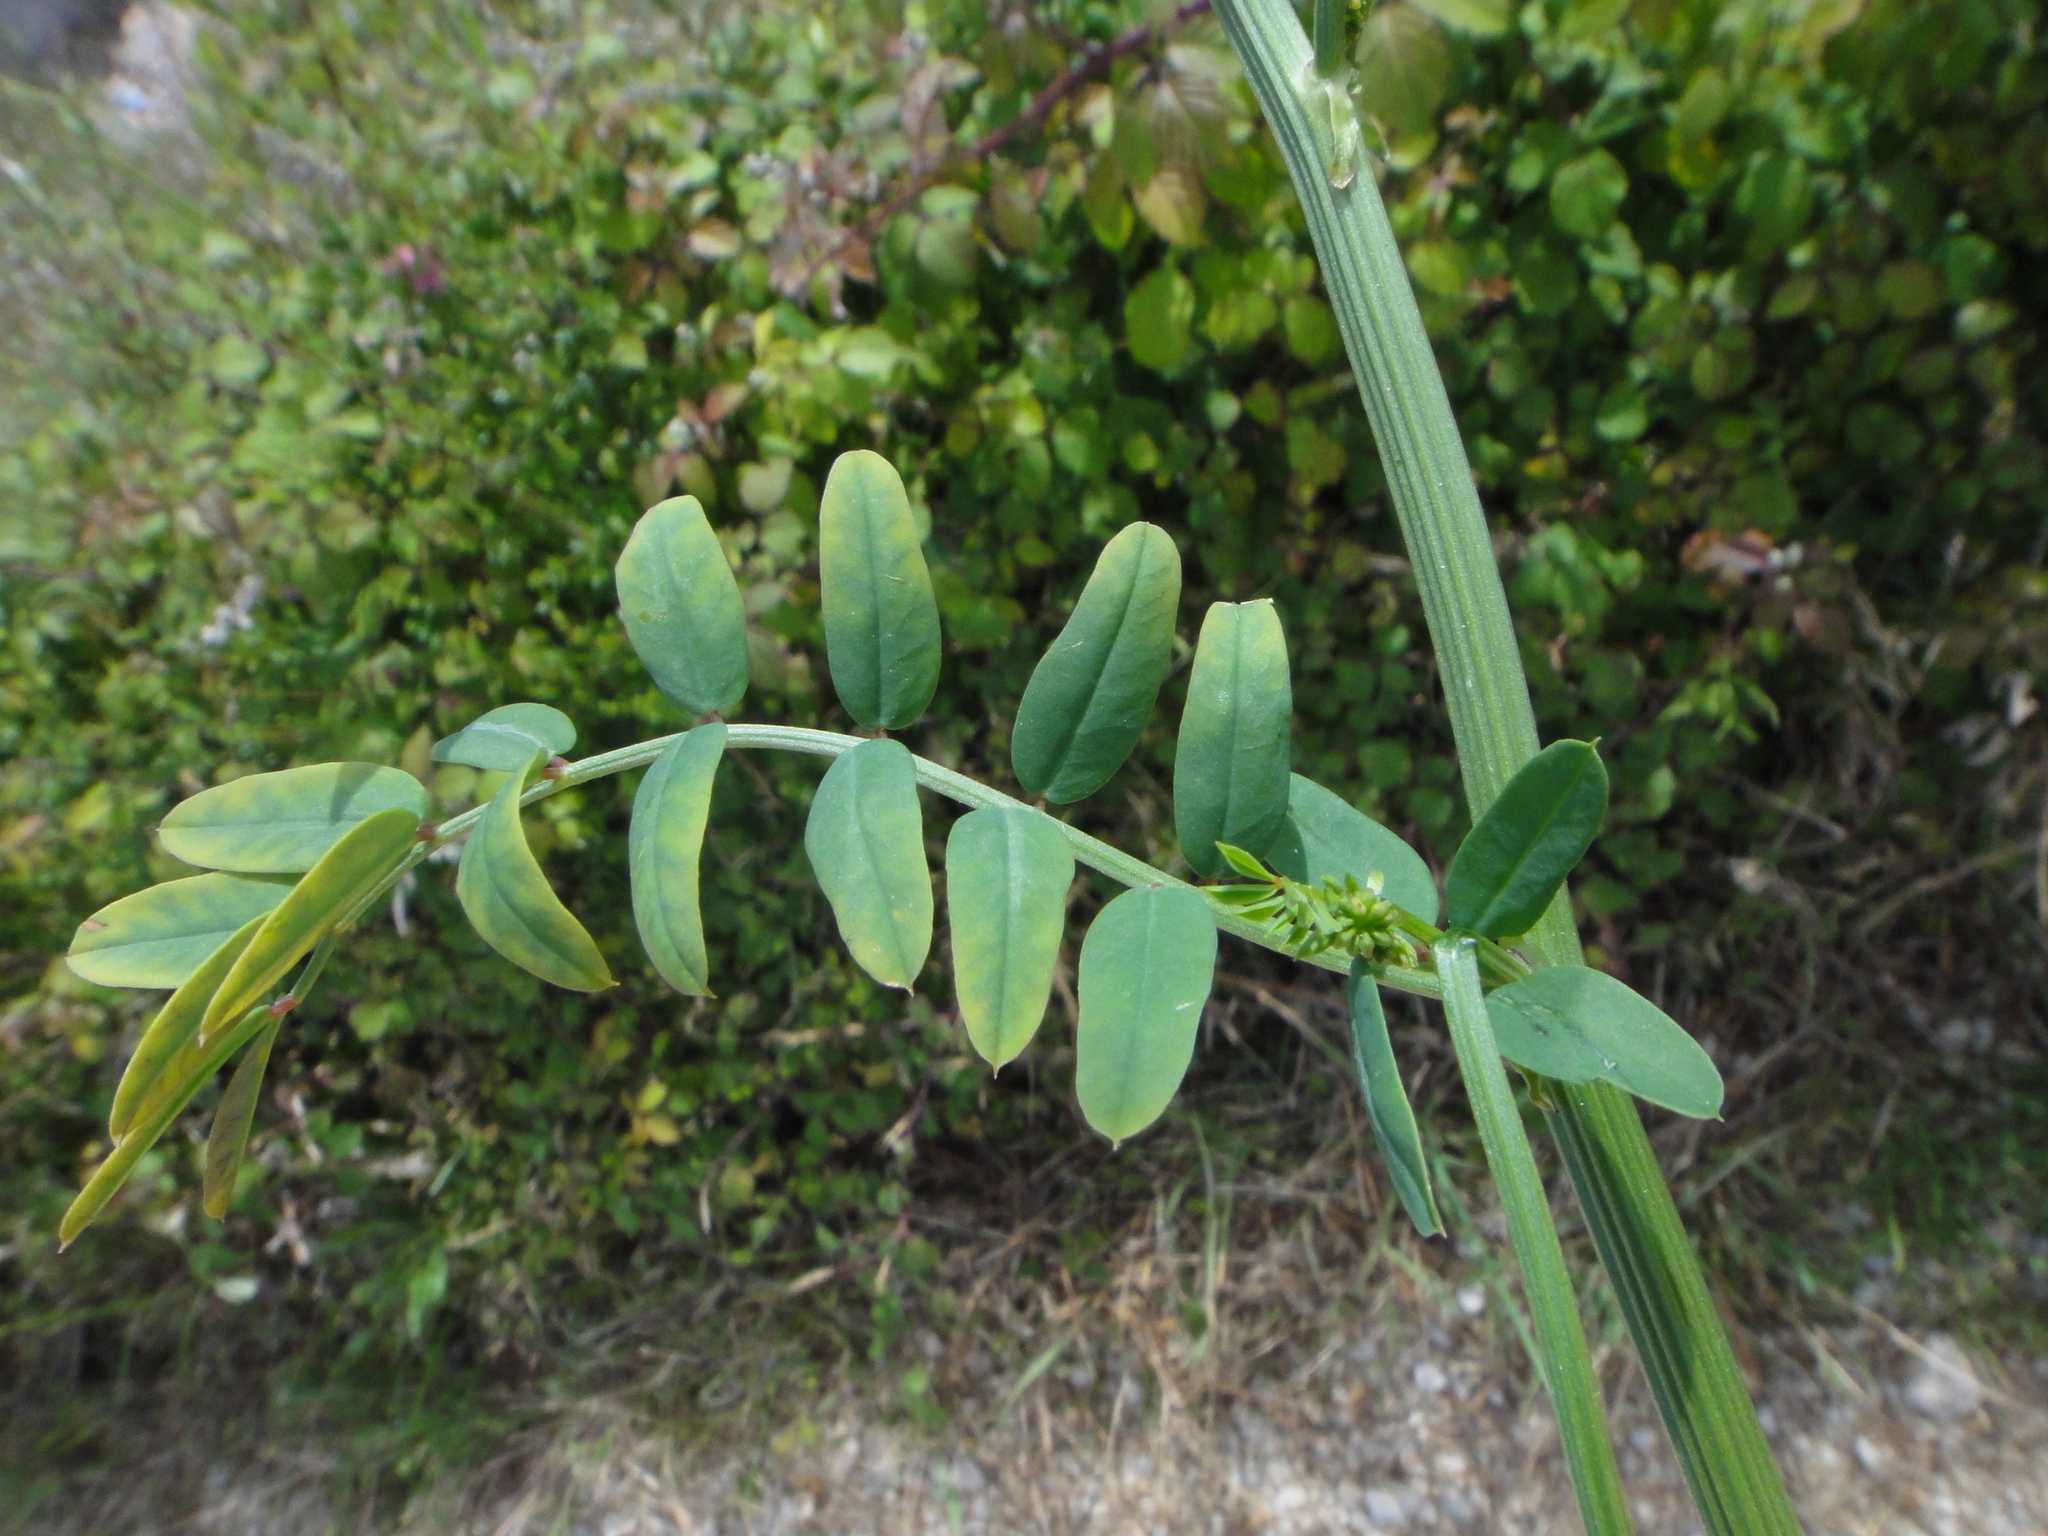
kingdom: Plantae
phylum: Tracheophyta
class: Magnoliopsida
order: Fabales
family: Fabaceae
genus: Coronilla
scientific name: Coronilla varia
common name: Crownvetch
